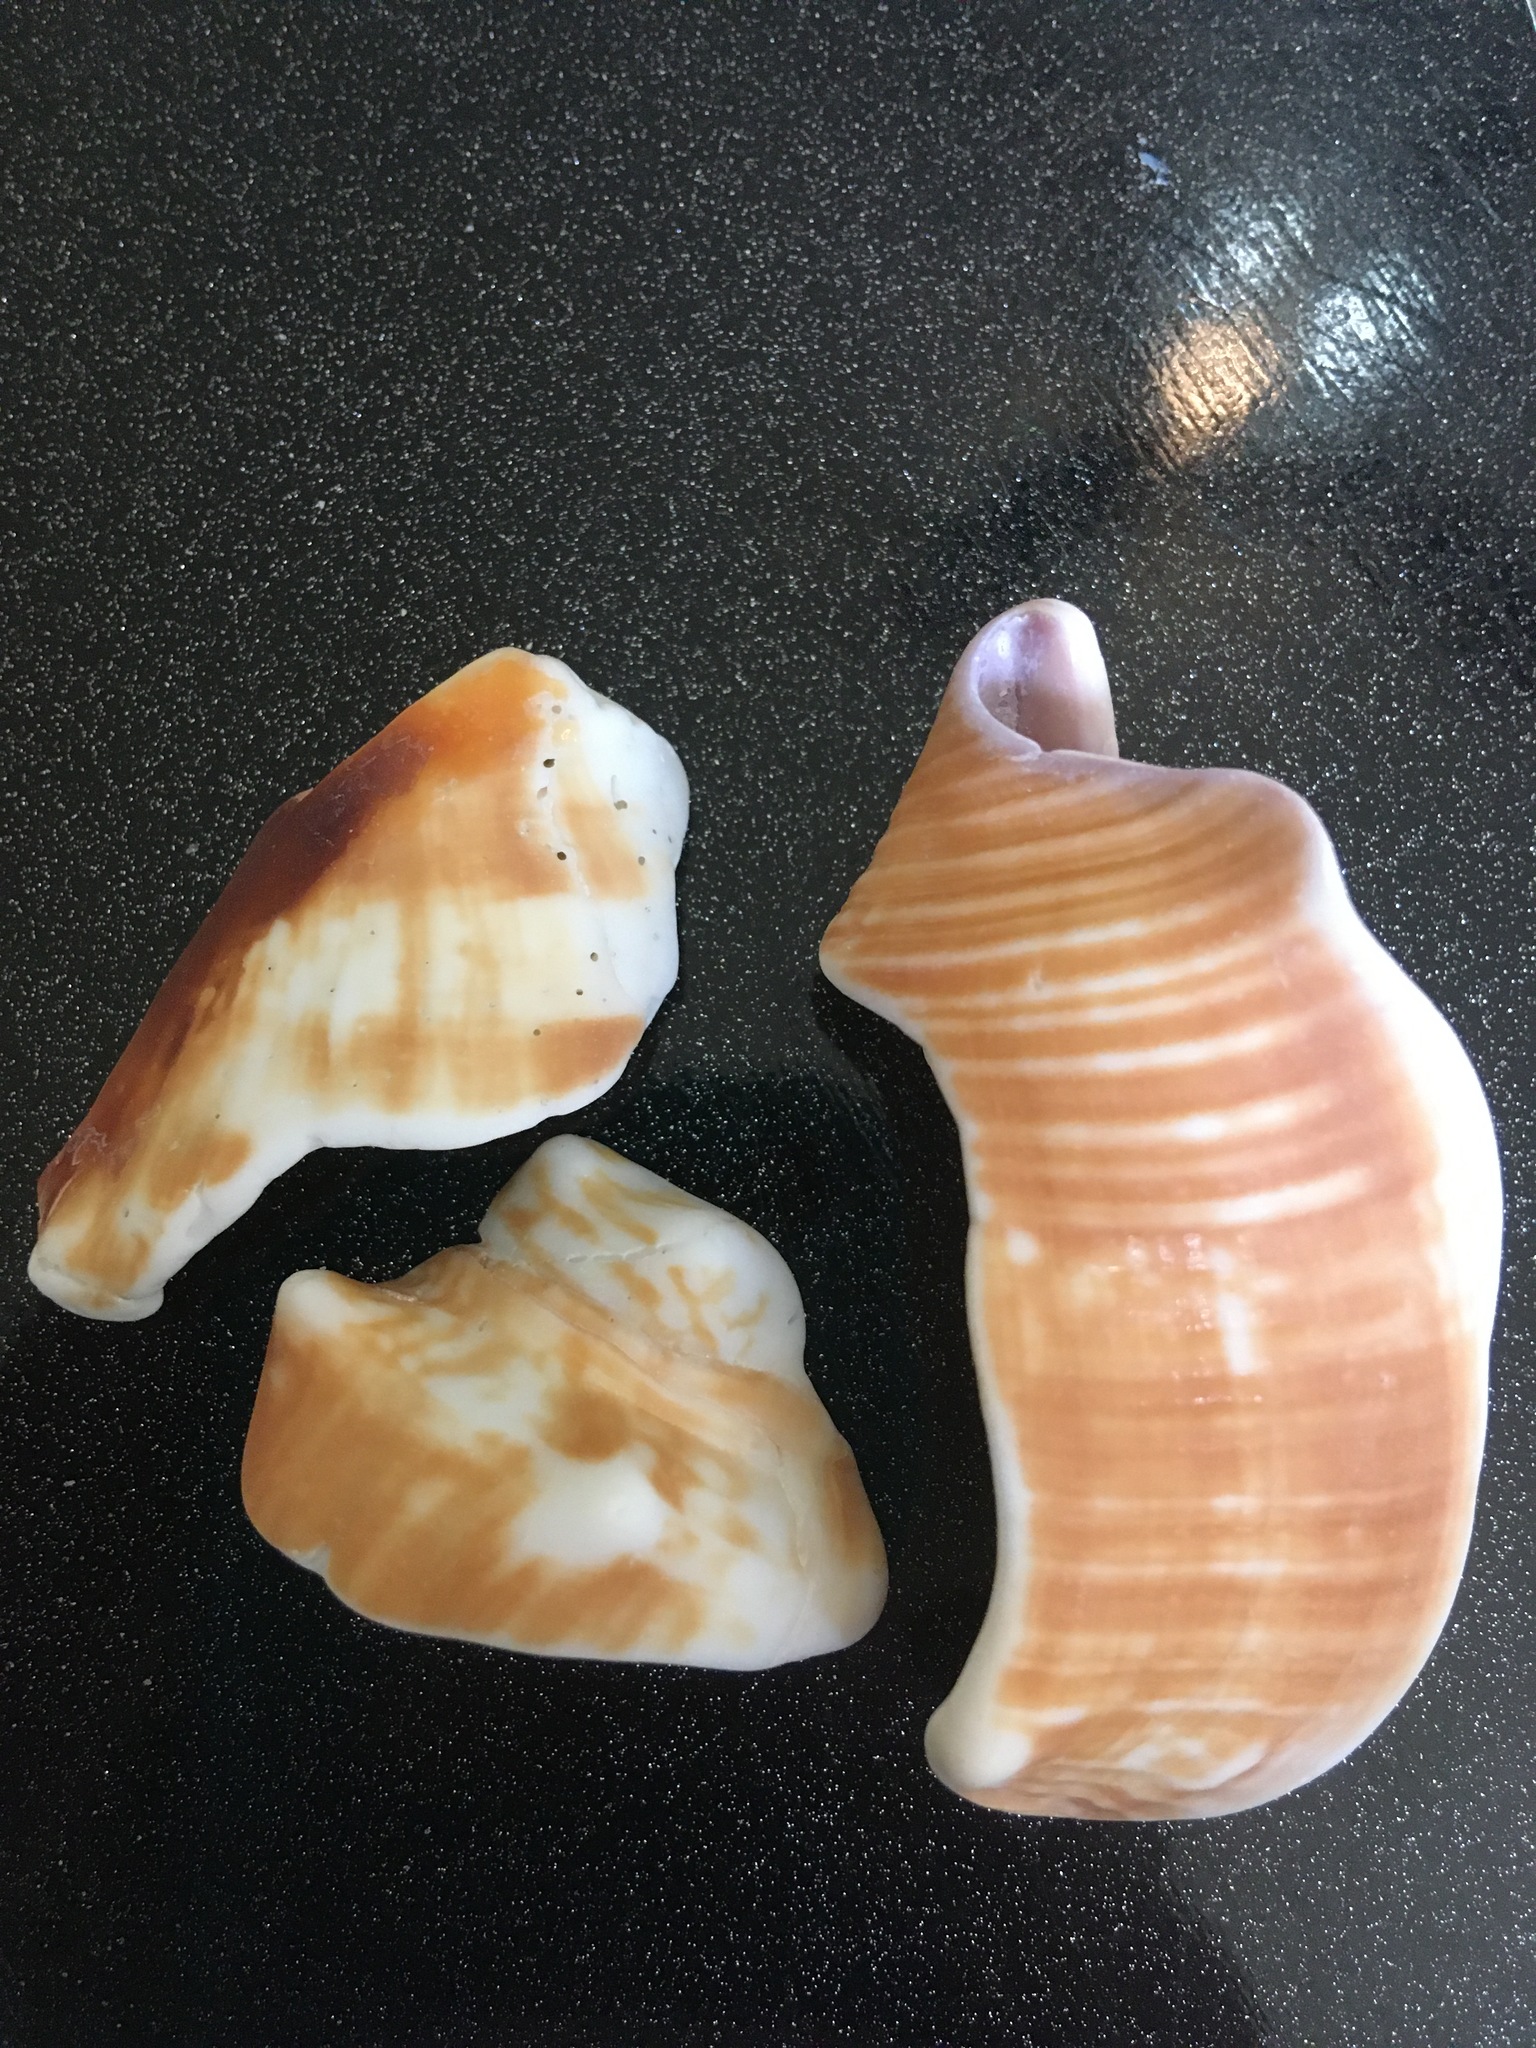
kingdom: Animalia
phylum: Mollusca
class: Gastropoda
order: Littorinimorpha
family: Strombidae
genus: Strombus
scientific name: Strombus alatus
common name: Florida fighting conch
